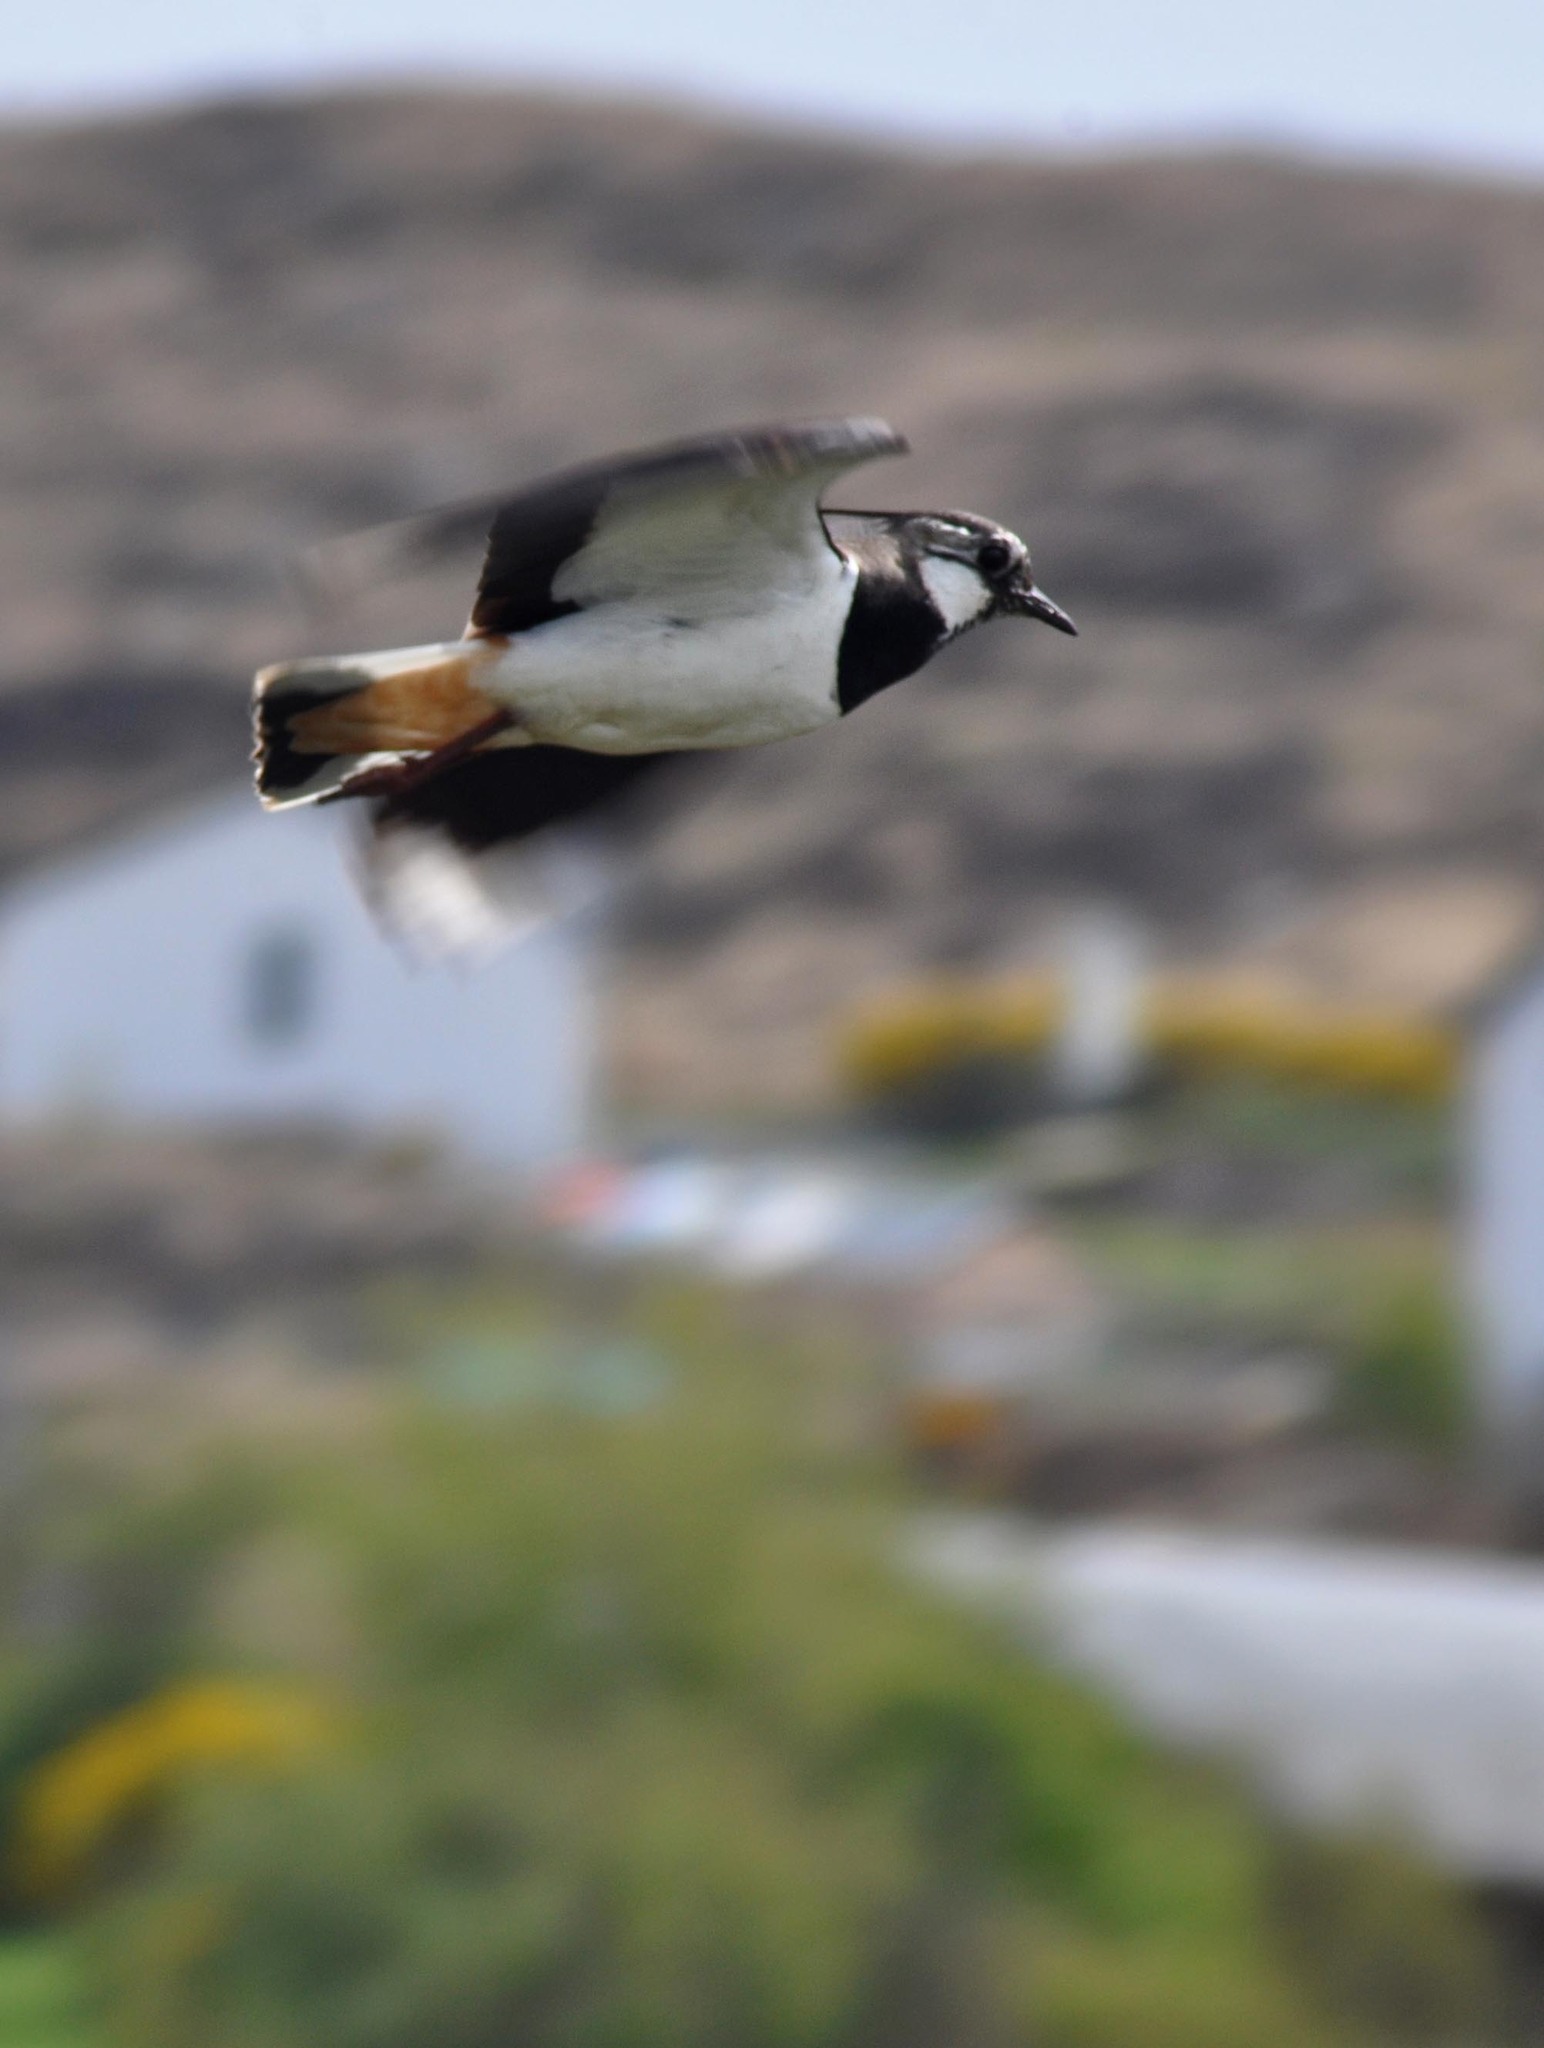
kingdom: Animalia
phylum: Chordata
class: Aves
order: Charadriiformes
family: Charadriidae
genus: Vanellus
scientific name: Vanellus vanellus
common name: Northern lapwing
